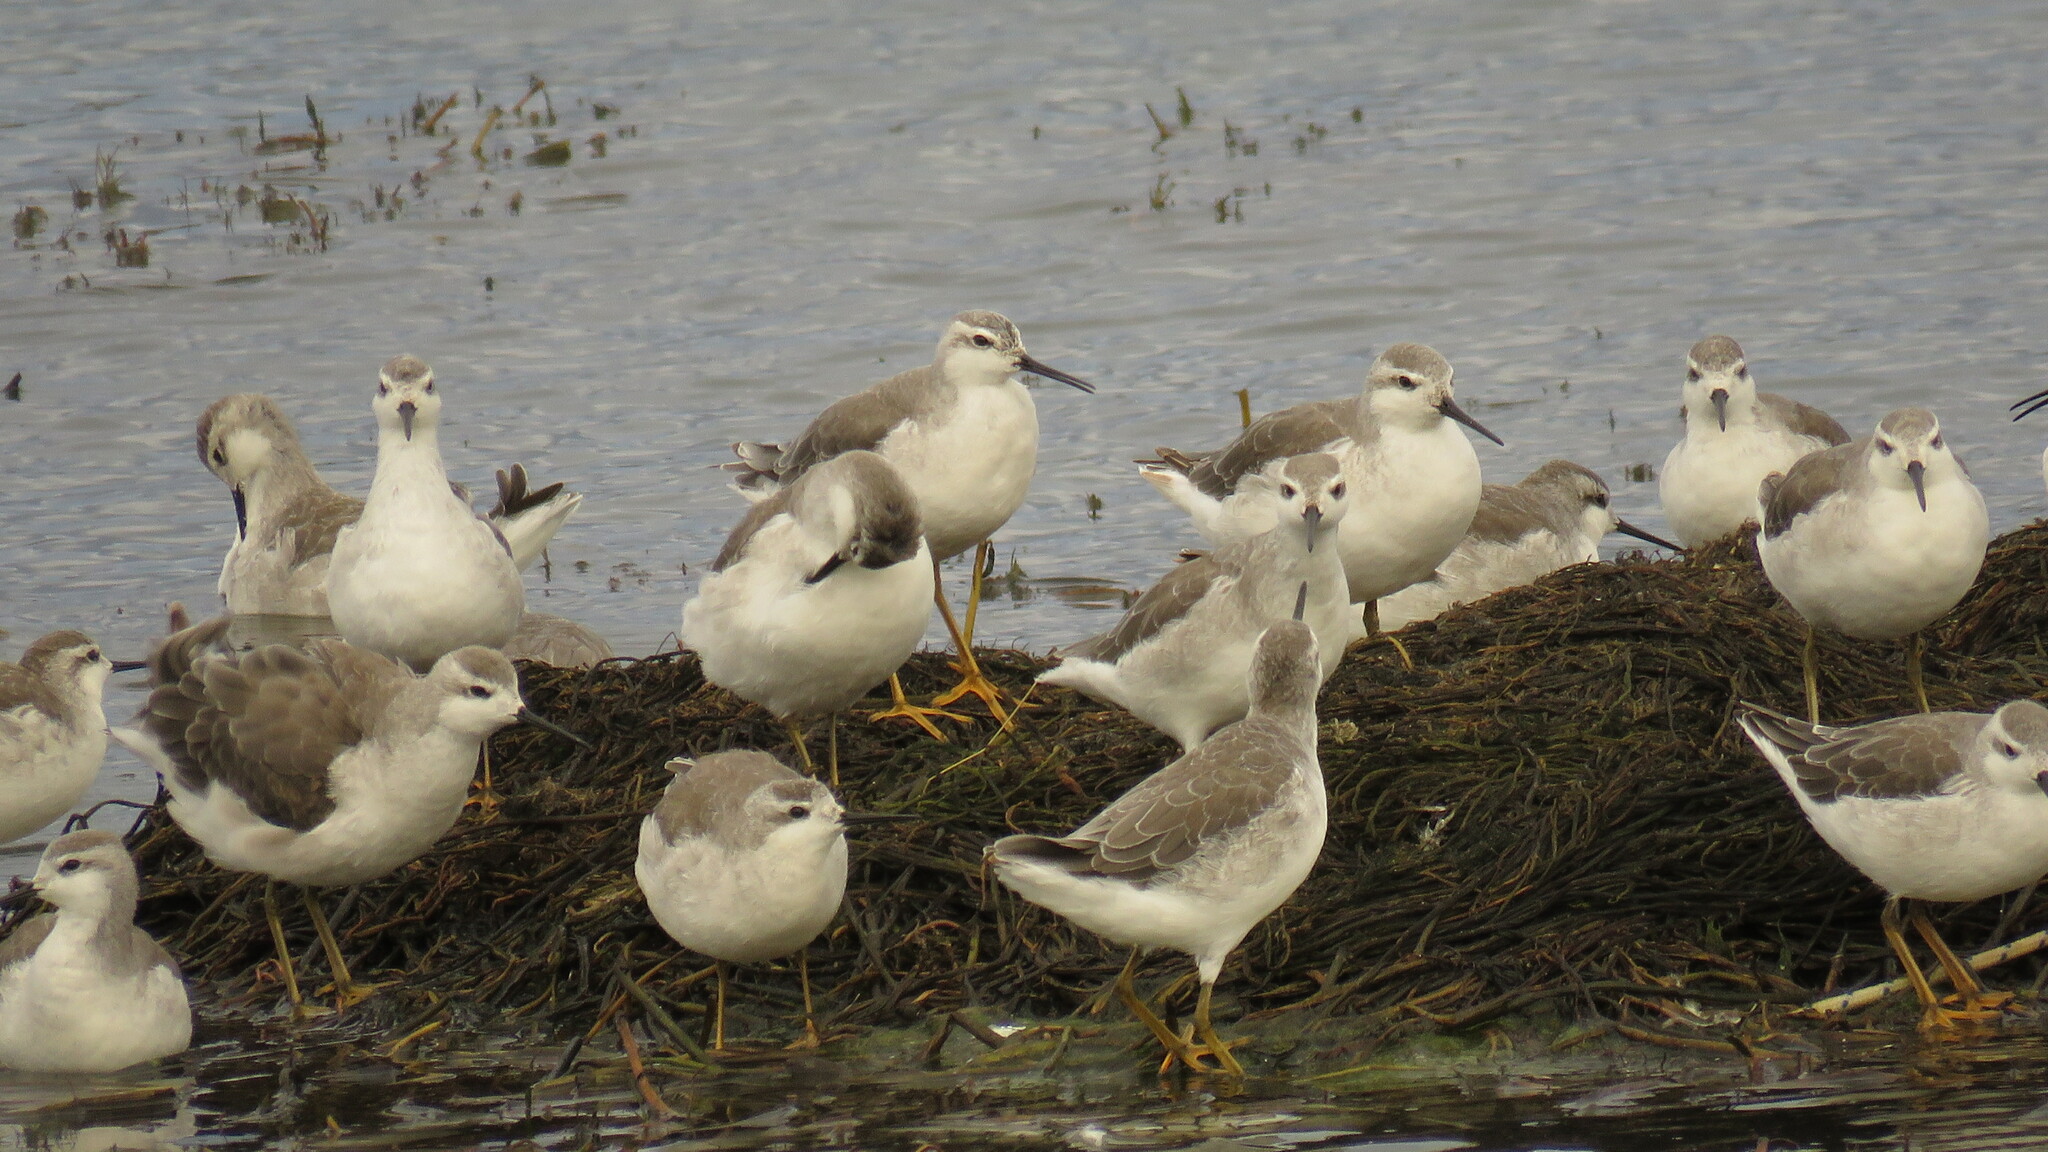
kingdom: Animalia
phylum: Chordata
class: Aves
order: Charadriiformes
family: Scolopacidae
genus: Phalaropus
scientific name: Phalaropus tricolor
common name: Wilson's phalarope
